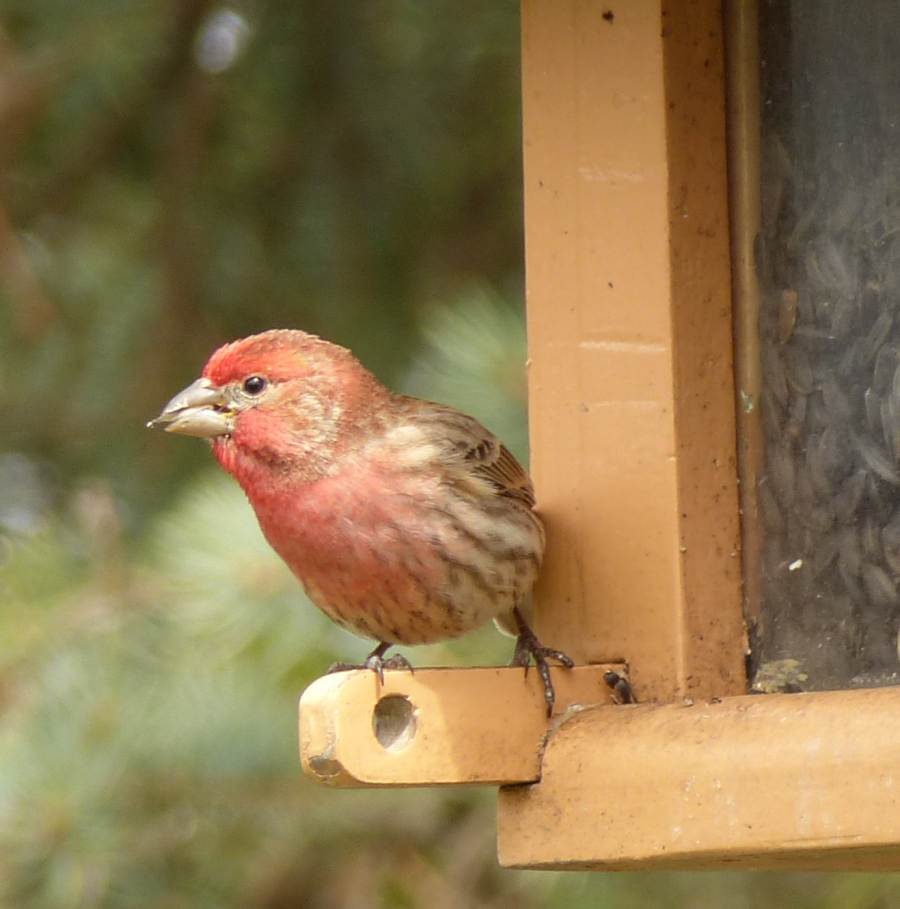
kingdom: Animalia
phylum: Chordata
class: Aves
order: Passeriformes
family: Fringillidae
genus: Haemorhous
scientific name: Haemorhous mexicanus
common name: House finch
